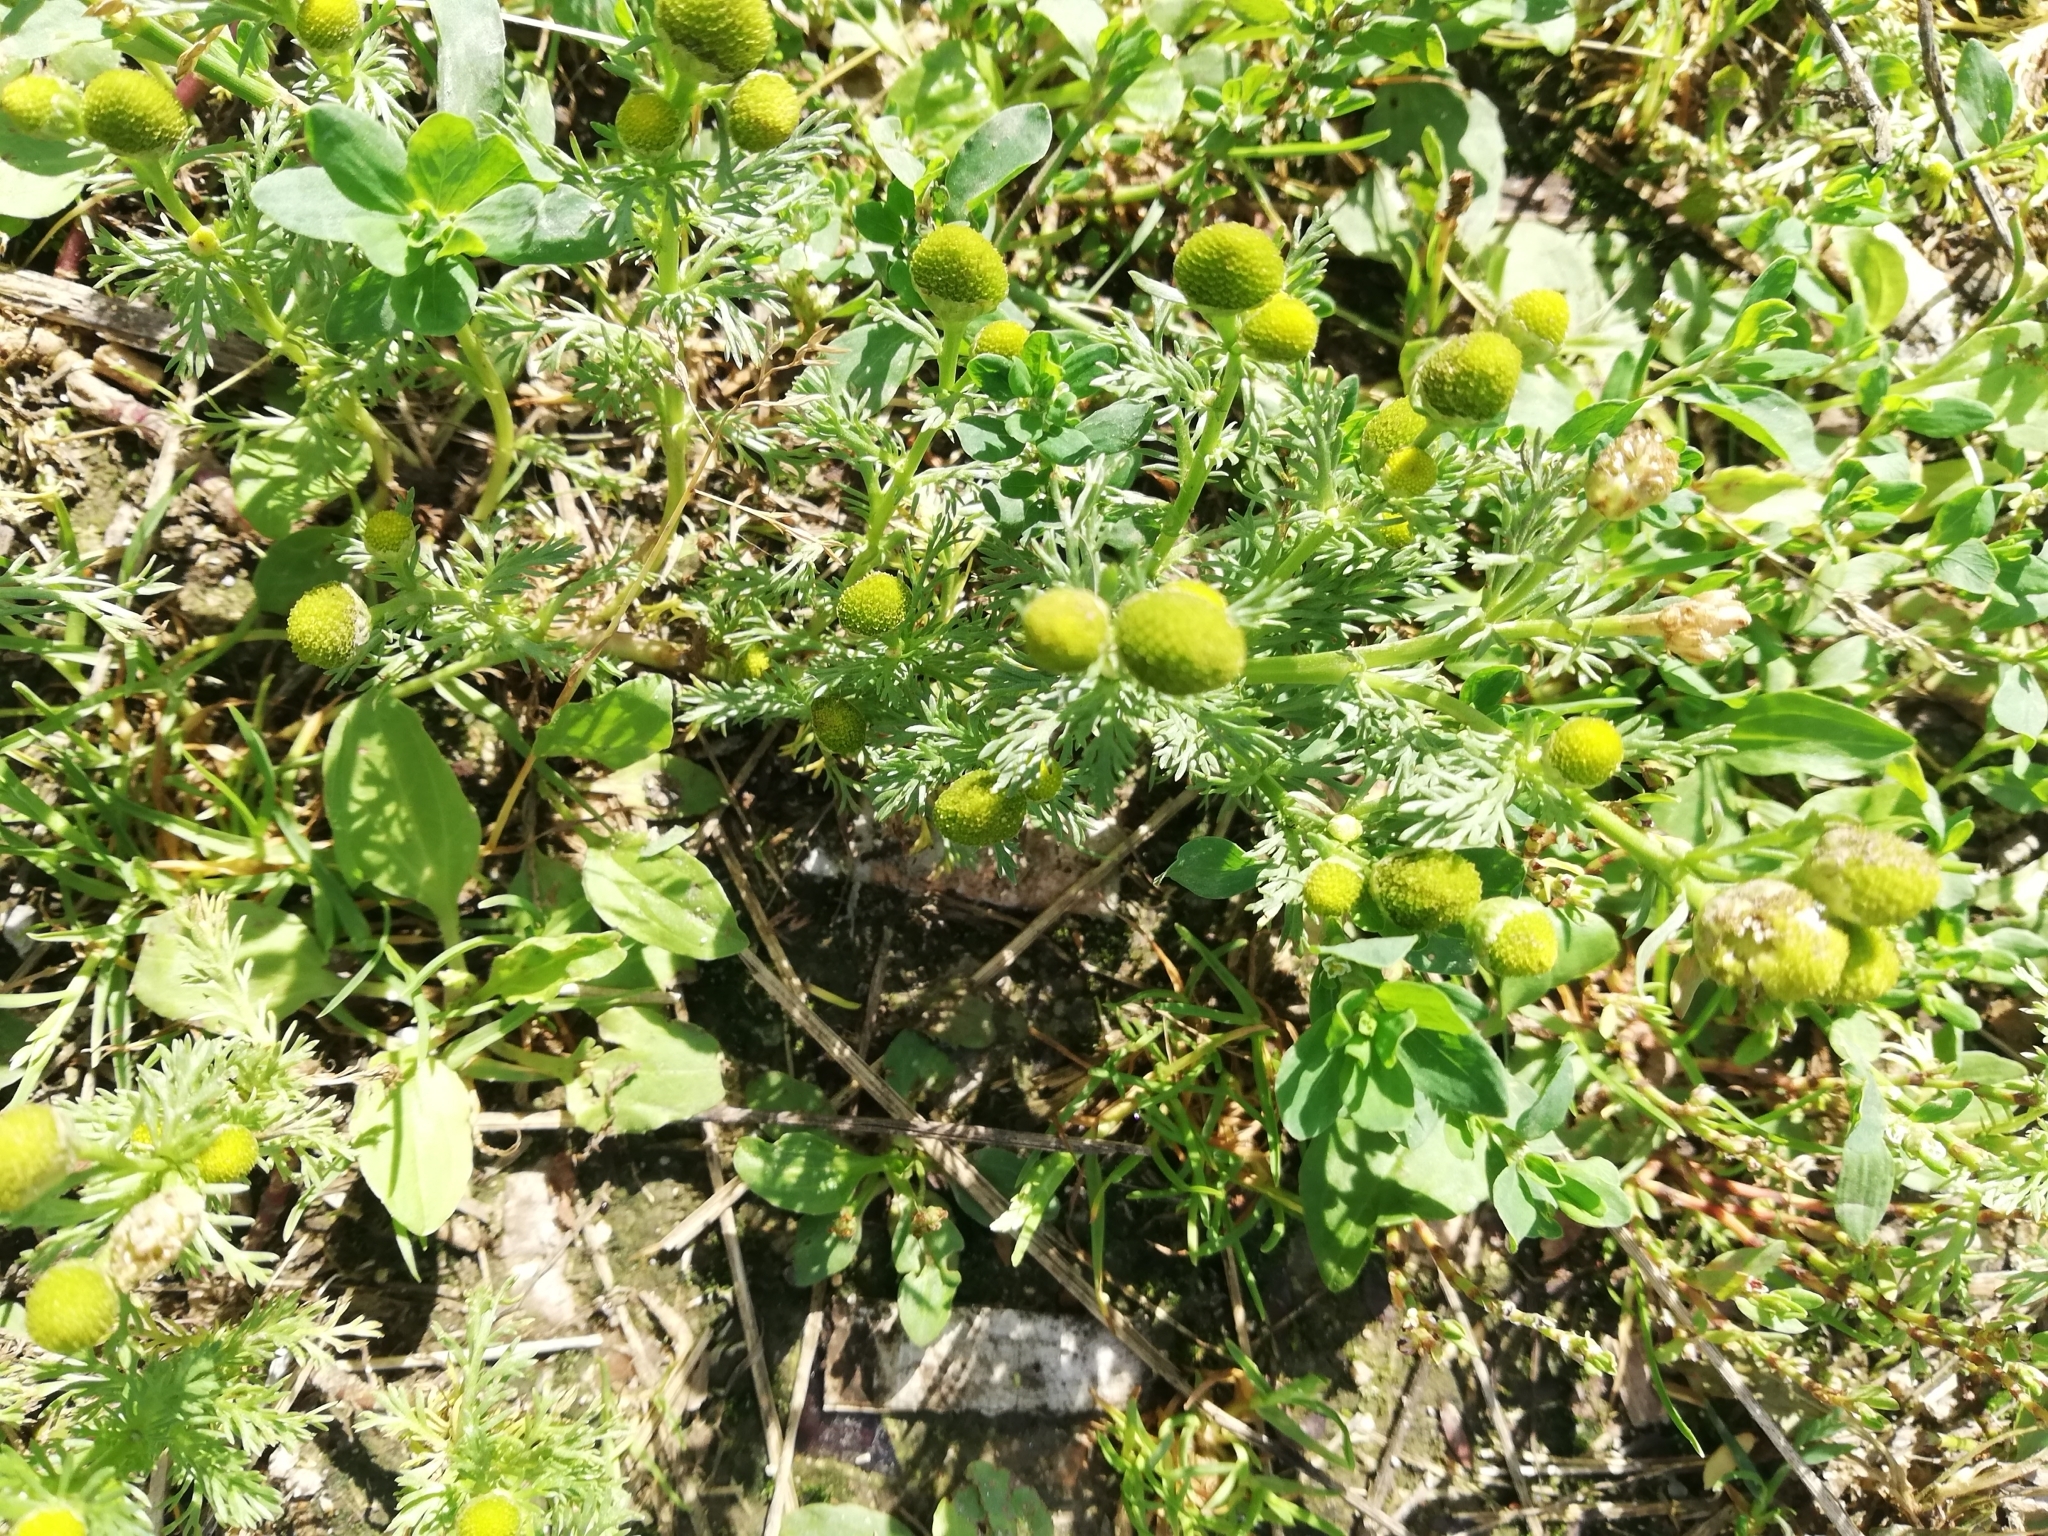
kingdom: Plantae
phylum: Tracheophyta
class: Magnoliopsida
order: Asterales
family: Asteraceae
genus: Matricaria
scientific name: Matricaria discoidea
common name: Disc mayweed
